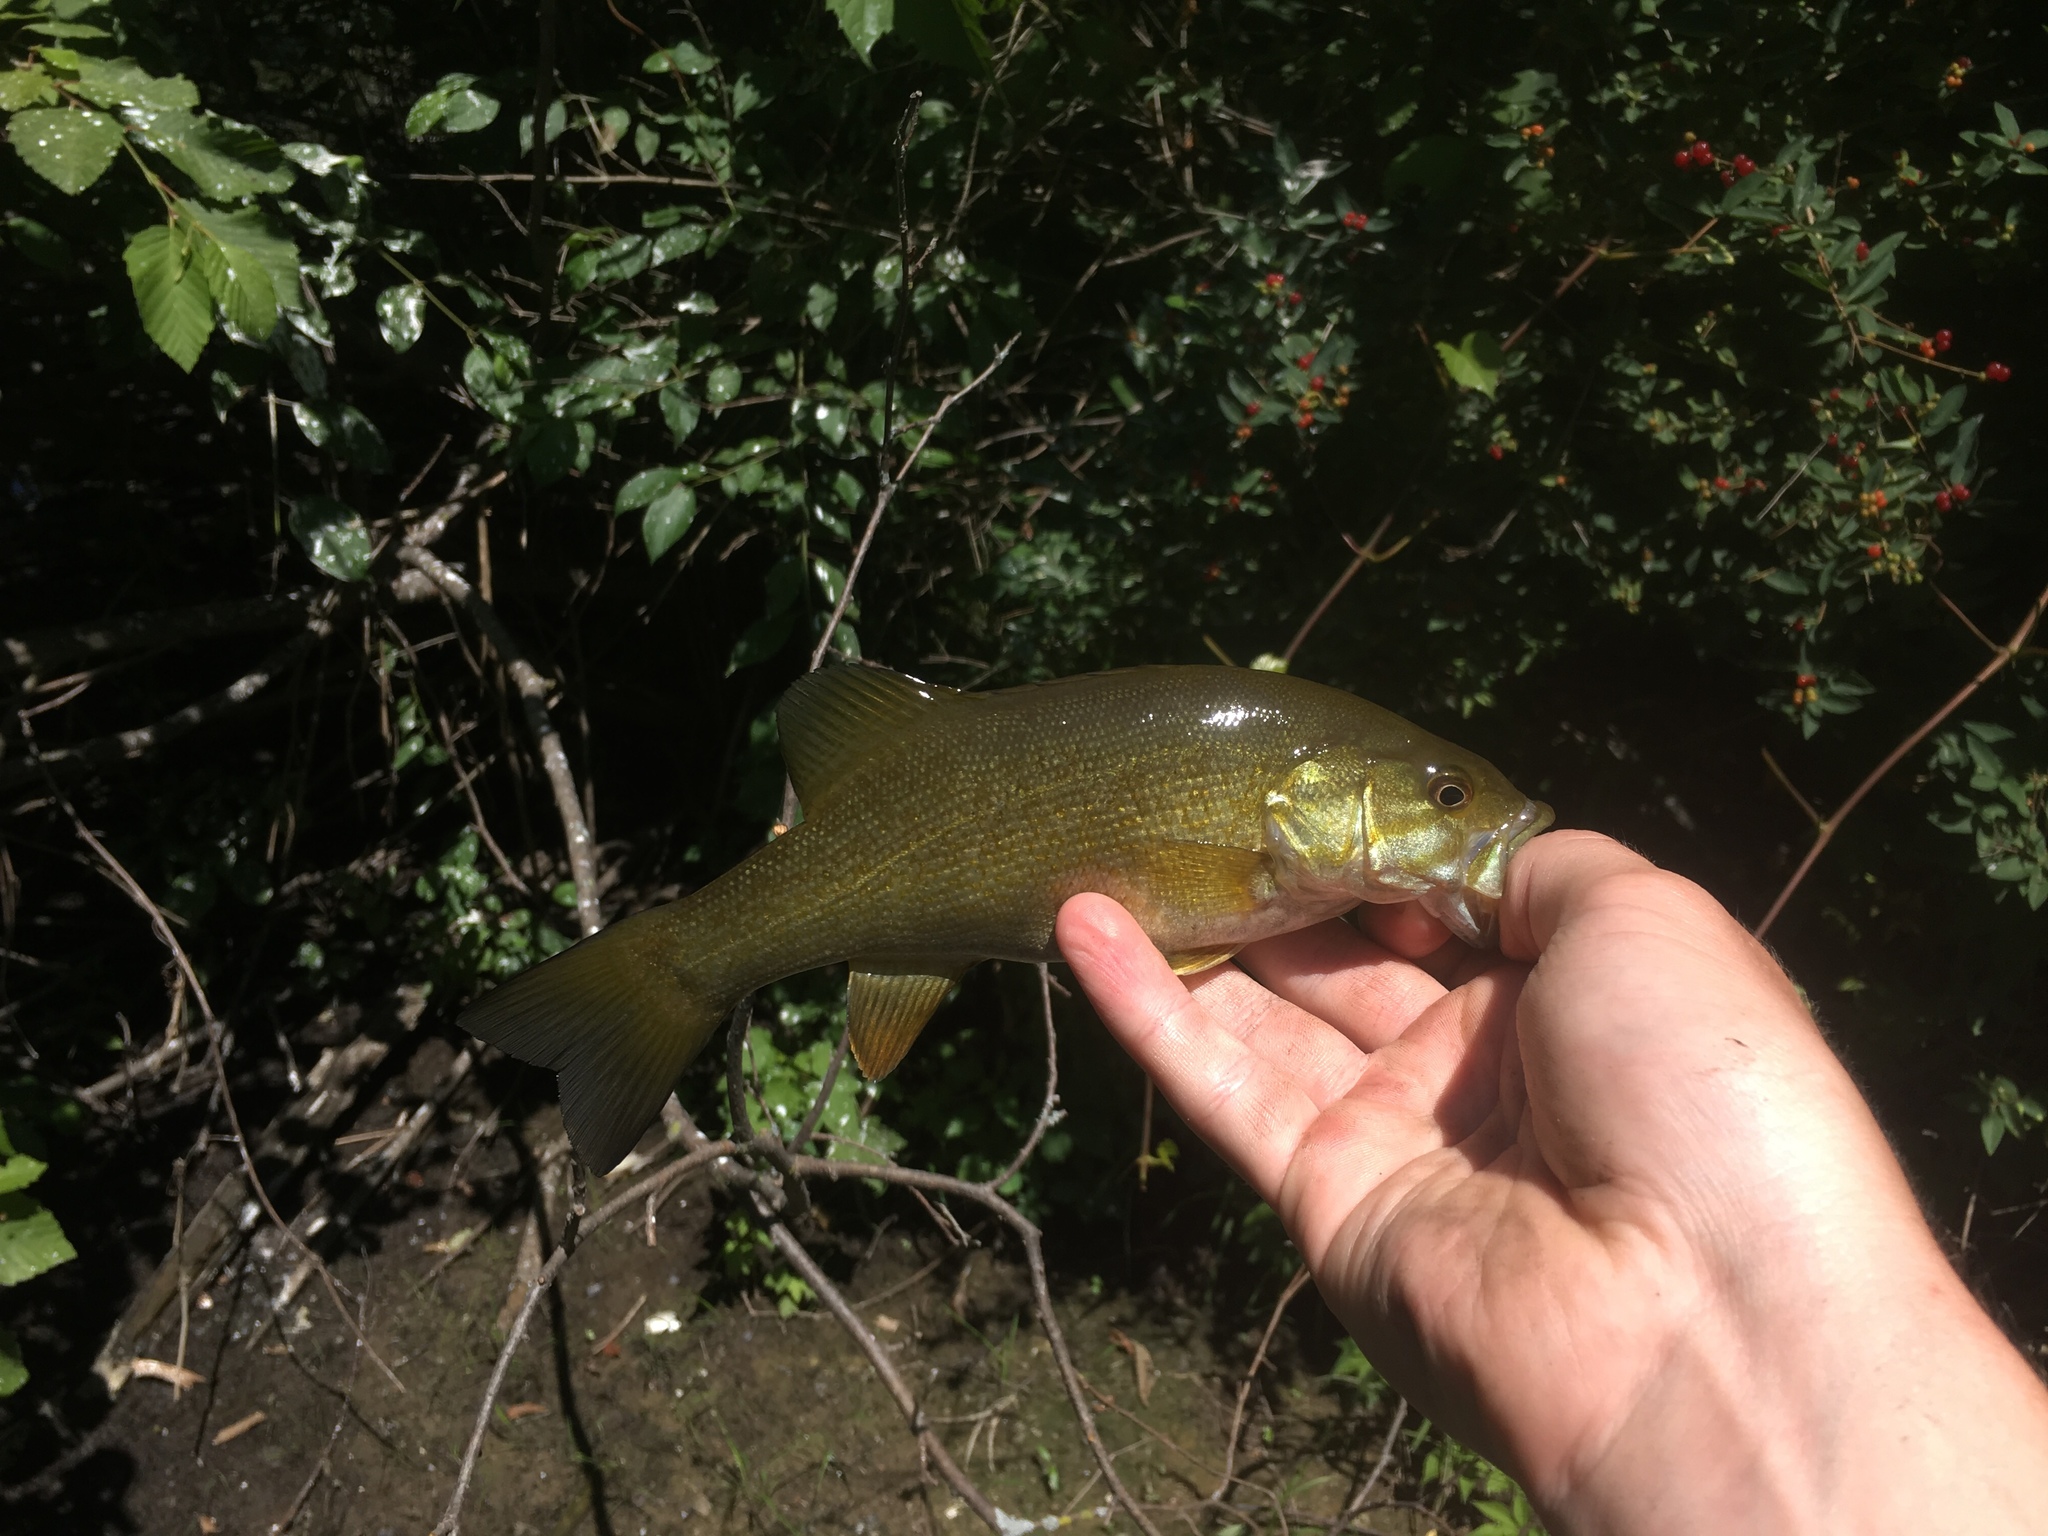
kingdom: Animalia
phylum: Chordata
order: Perciformes
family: Centrarchidae
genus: Micropterus
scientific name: Micropterus dolomieu
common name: Smallmouth bass
